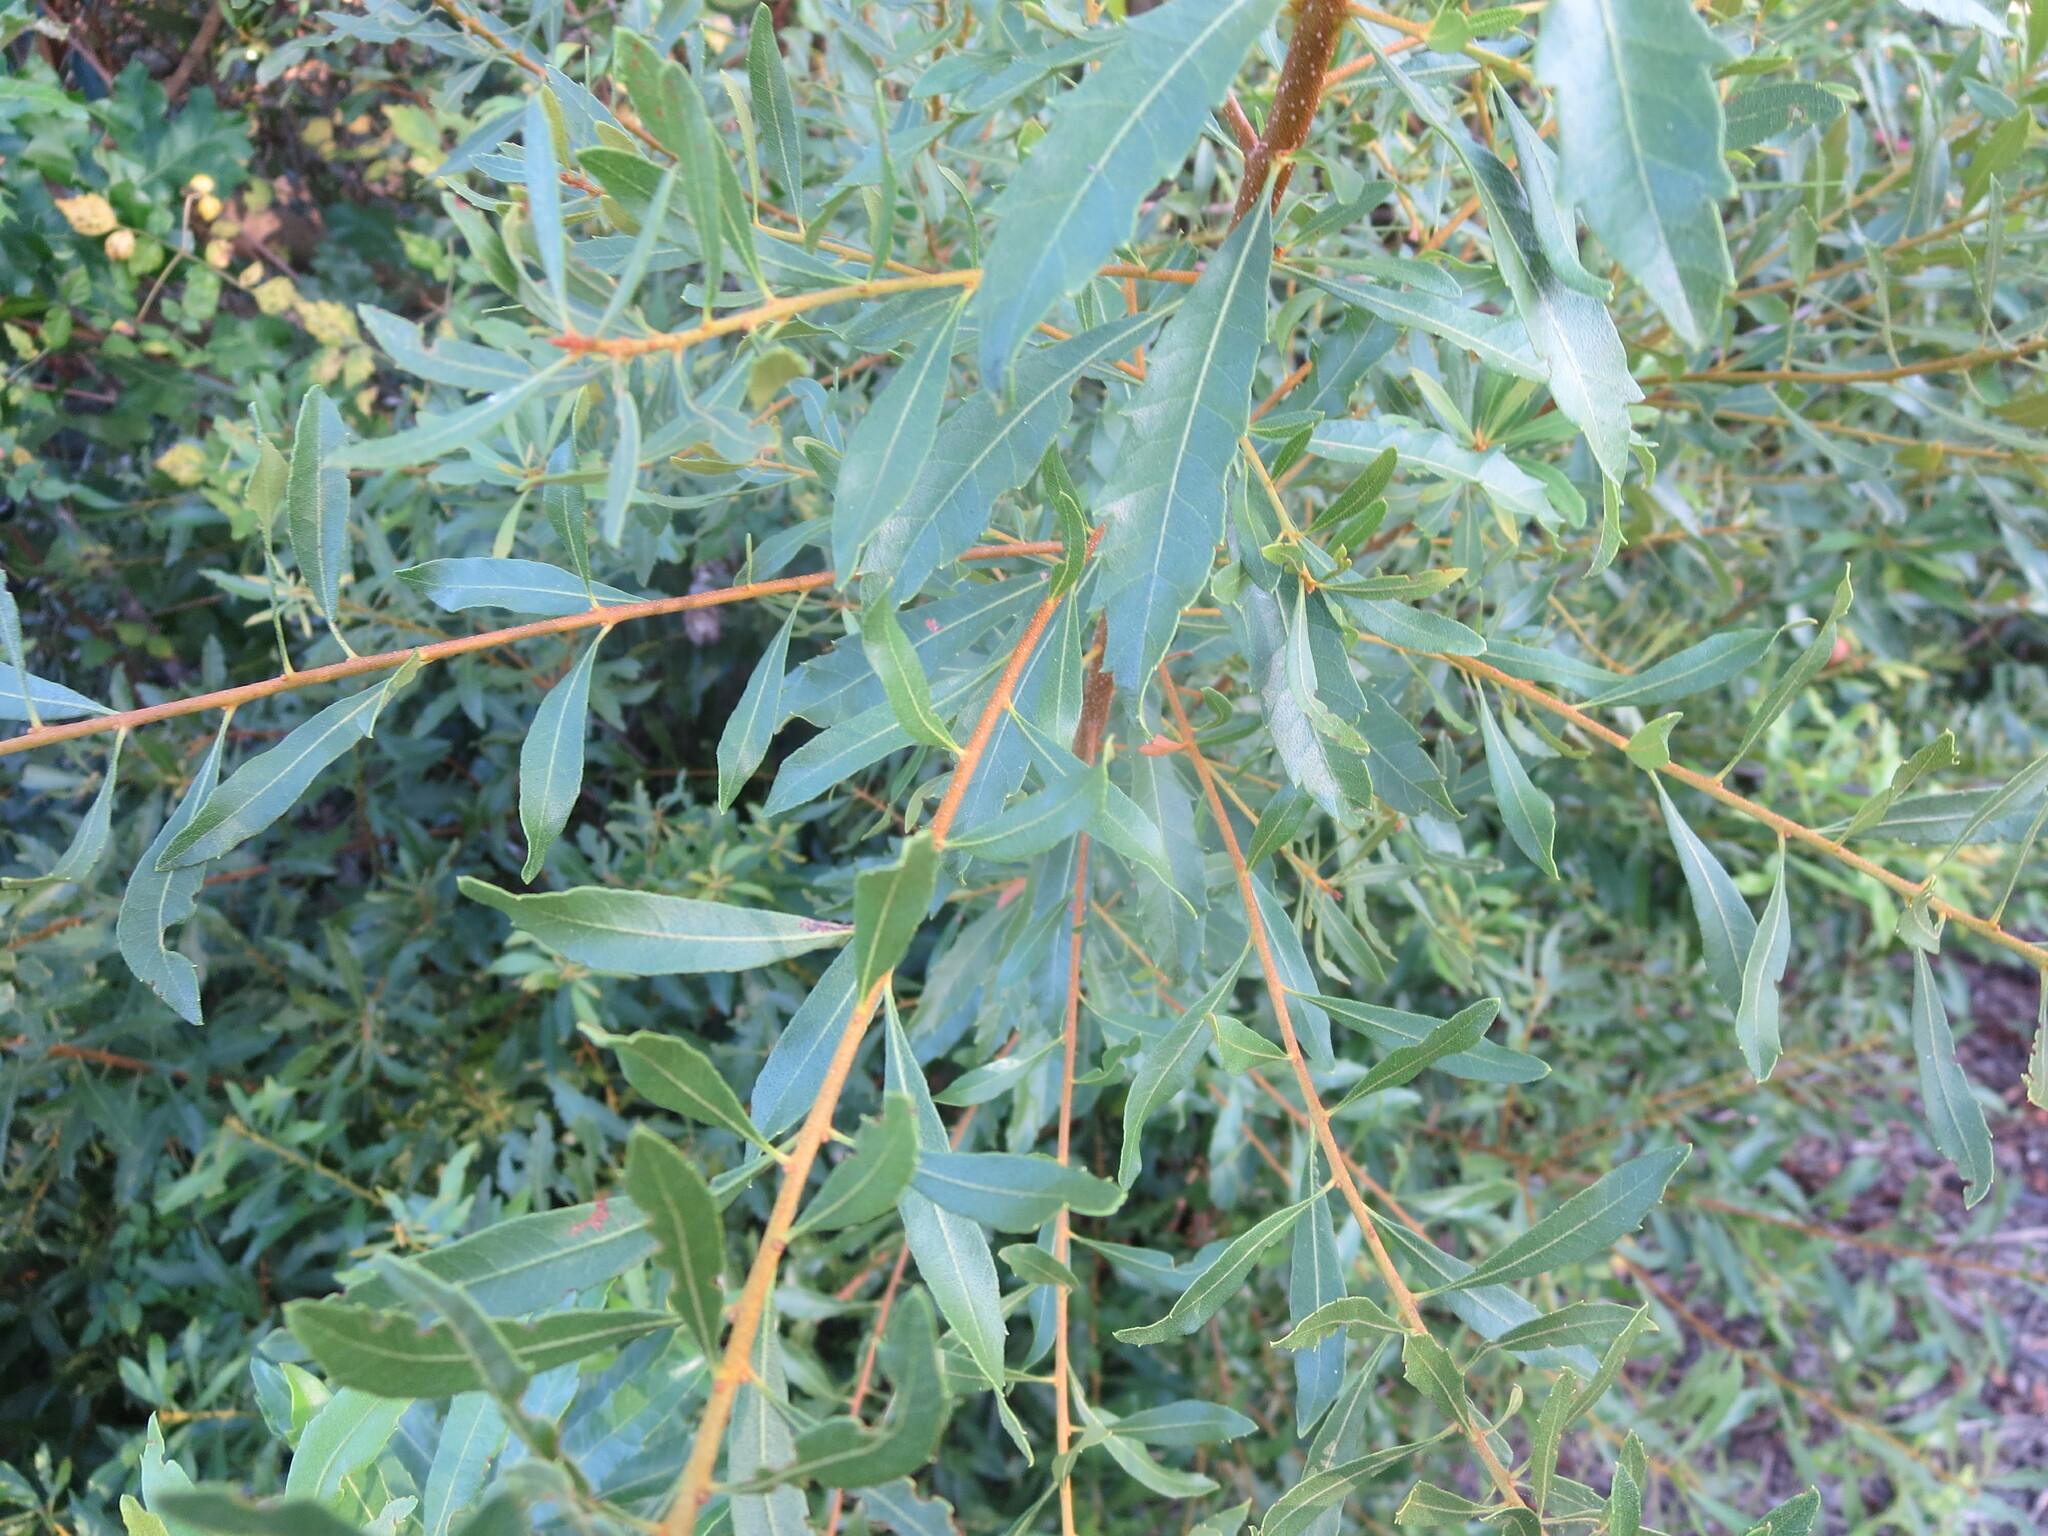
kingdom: Plantae
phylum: Tracheophyta
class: Magnoliopsida
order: Fagales
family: Myricaceae
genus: Morella
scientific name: Morella cerifera
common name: Wax myrtle
